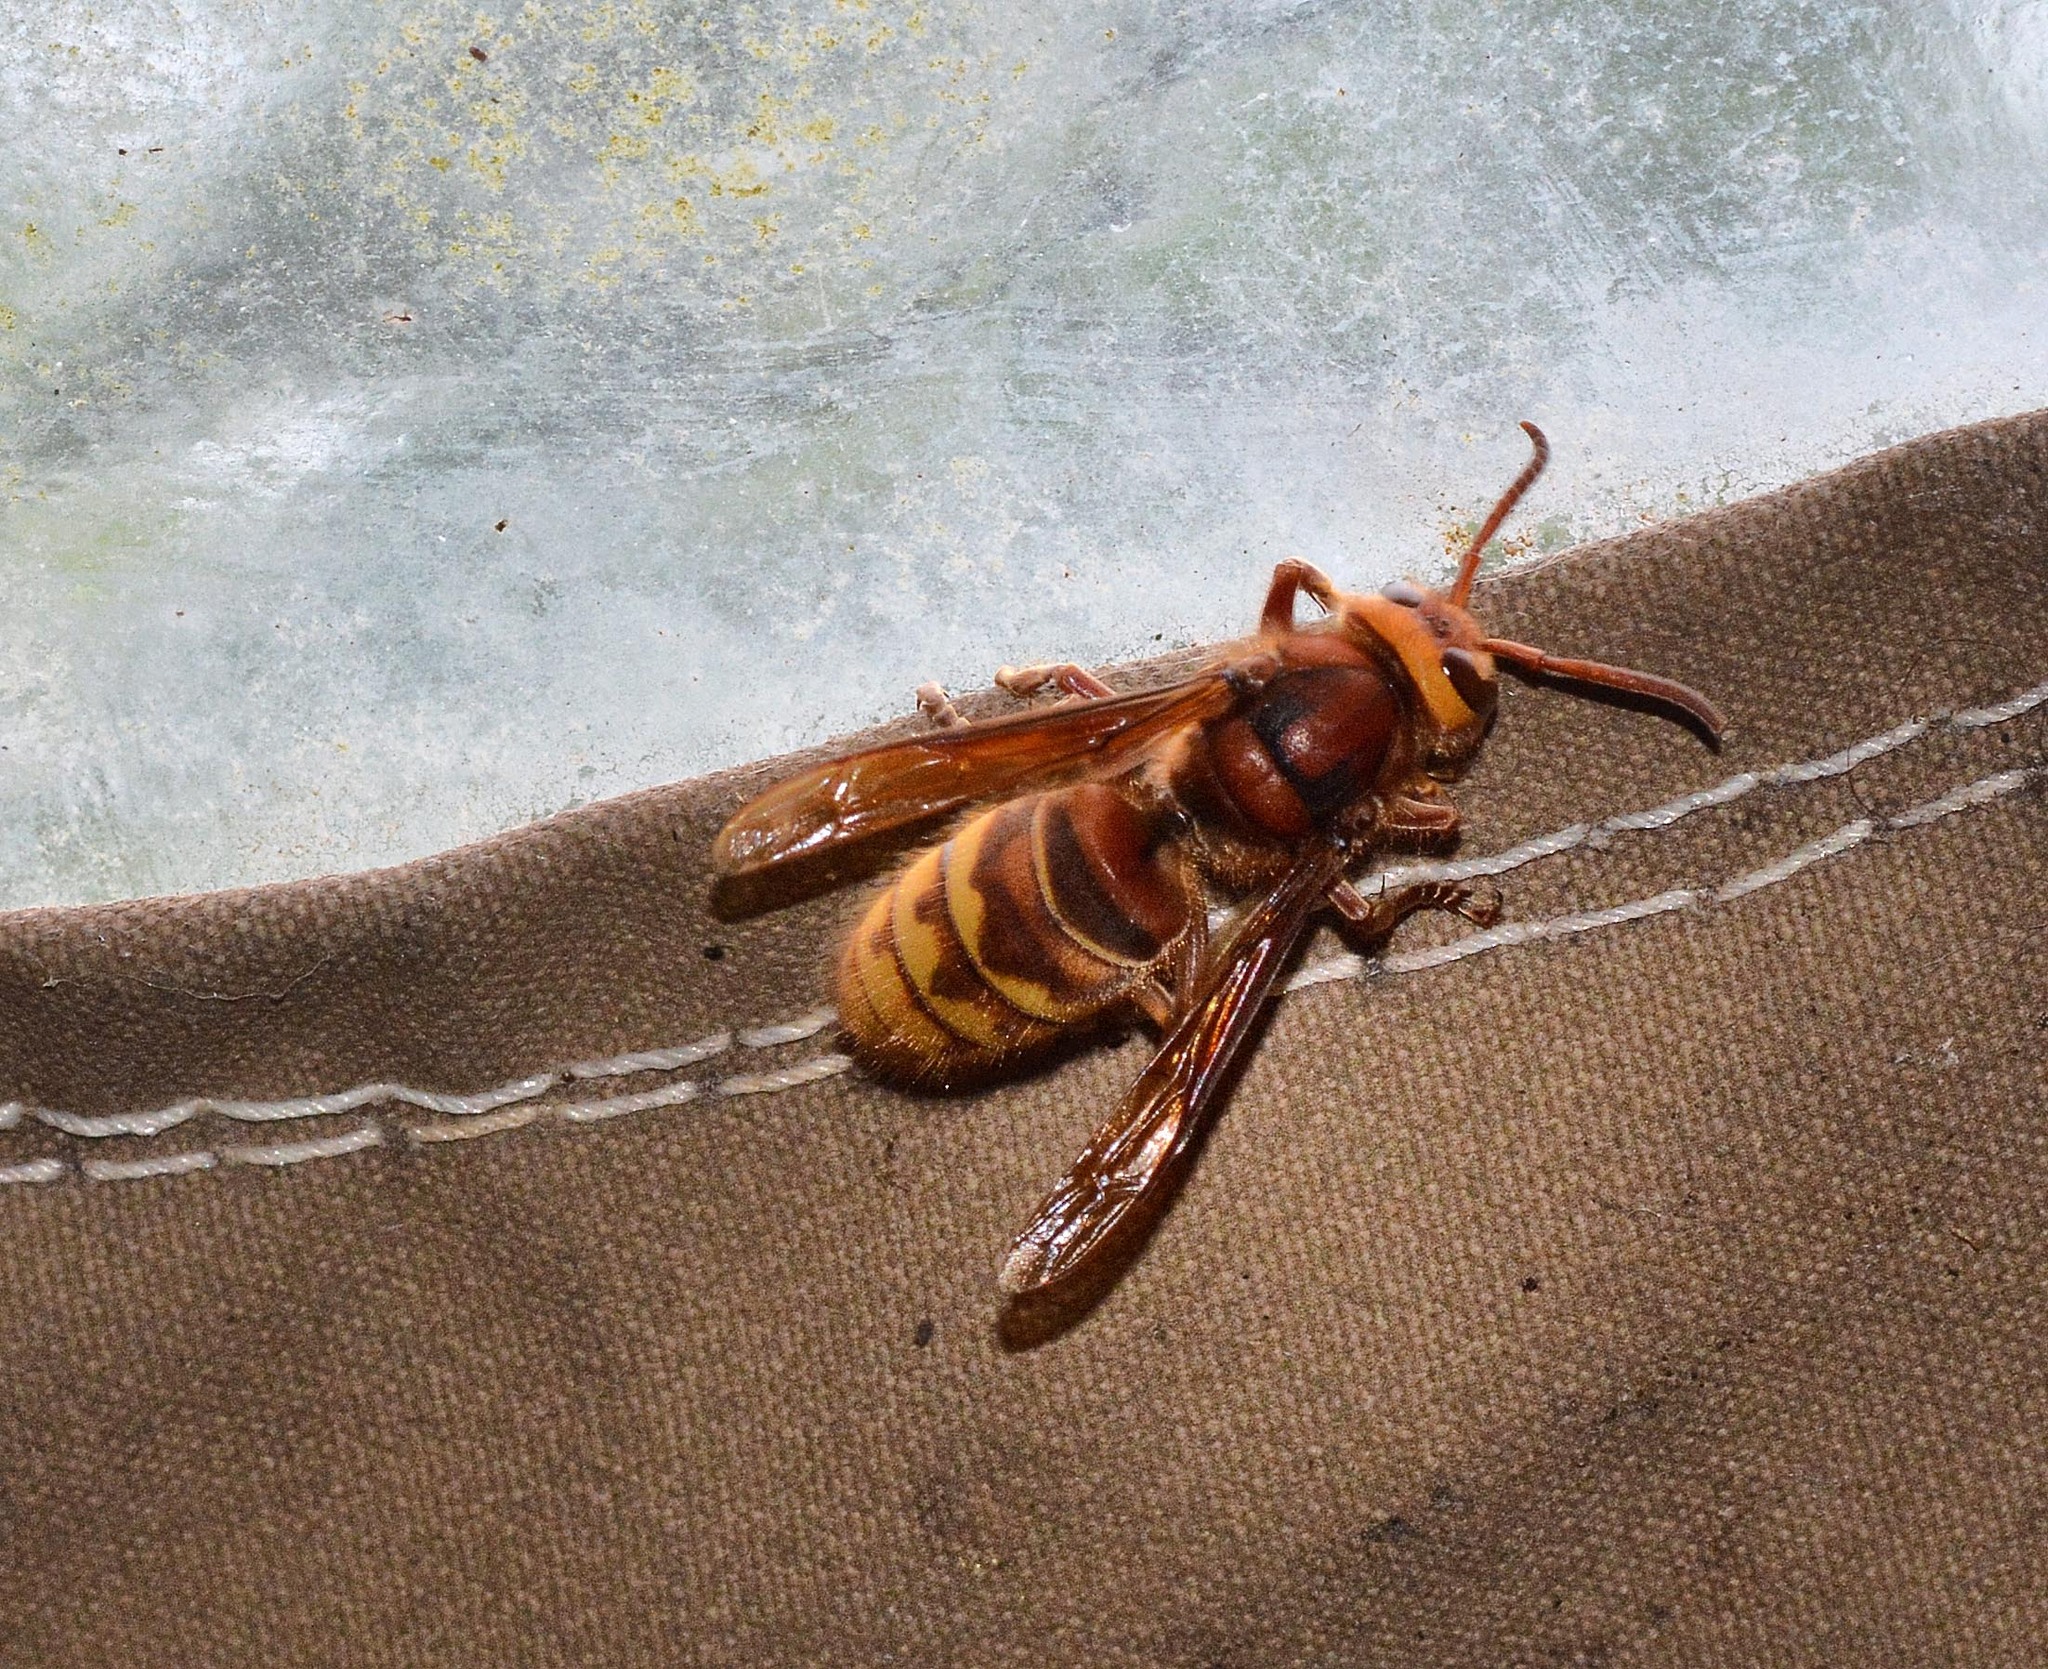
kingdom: Animalia
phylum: Arthropoda
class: Insecta
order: Hymenoptera
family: Vespidae
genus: Vespa
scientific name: Vespa crabro
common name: Hornet
